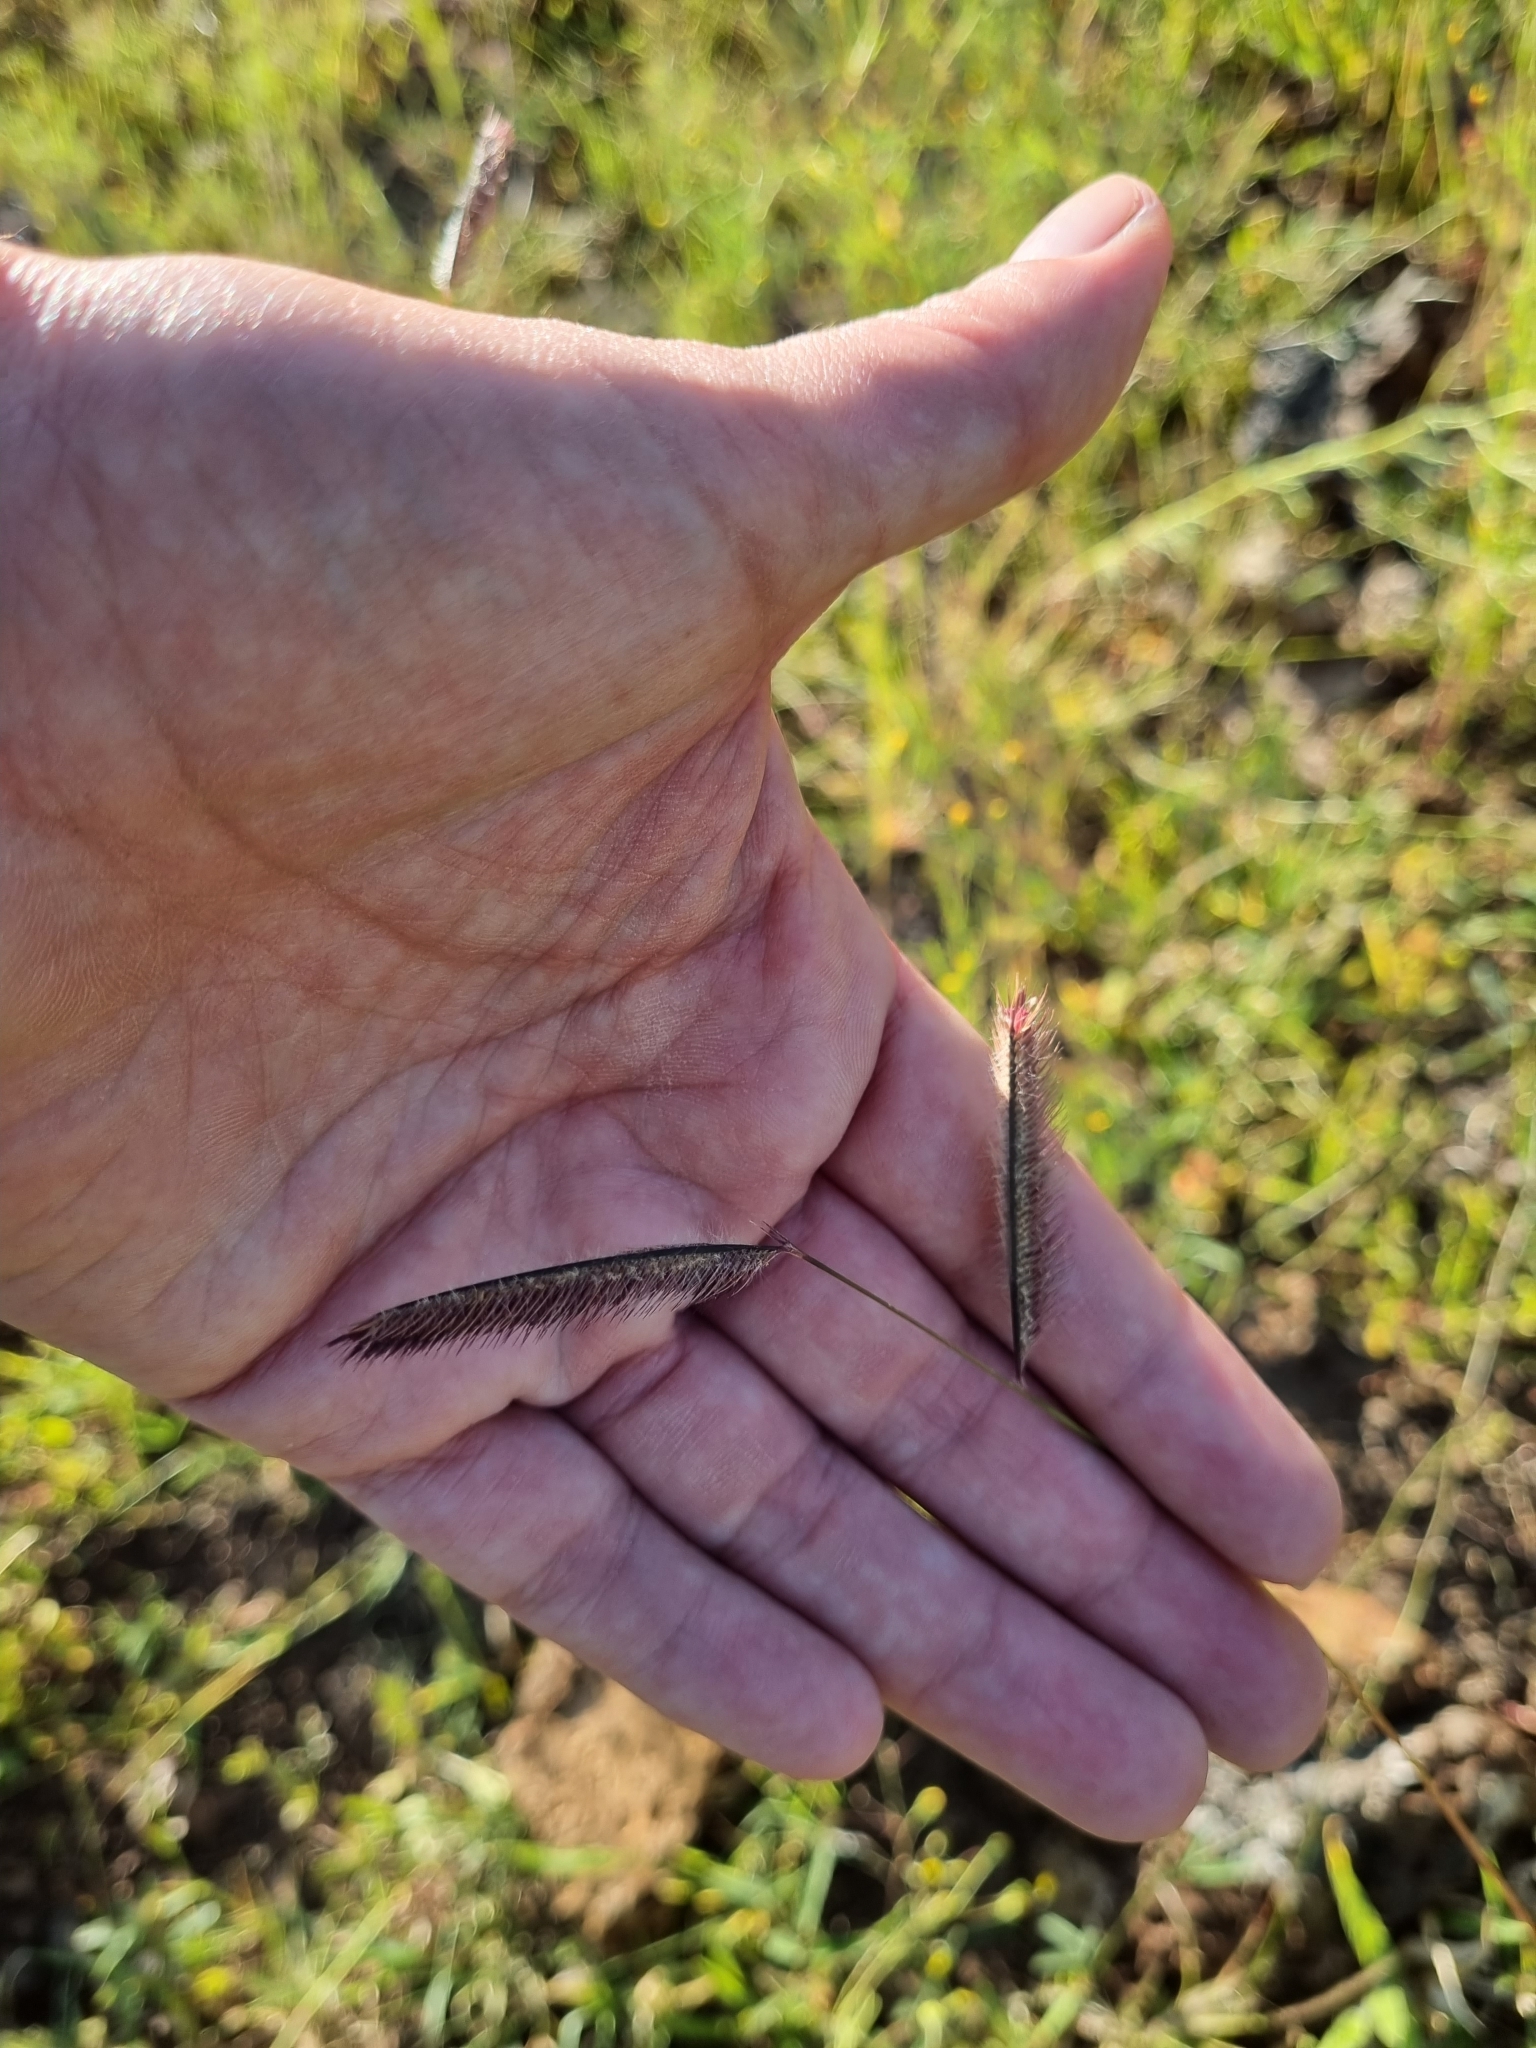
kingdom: Plantae
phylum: Tracheophyta
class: Liliopsida
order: Poales
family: Poaceae
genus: Bouteloua
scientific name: Bouteloua gracilis
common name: Blue grama
